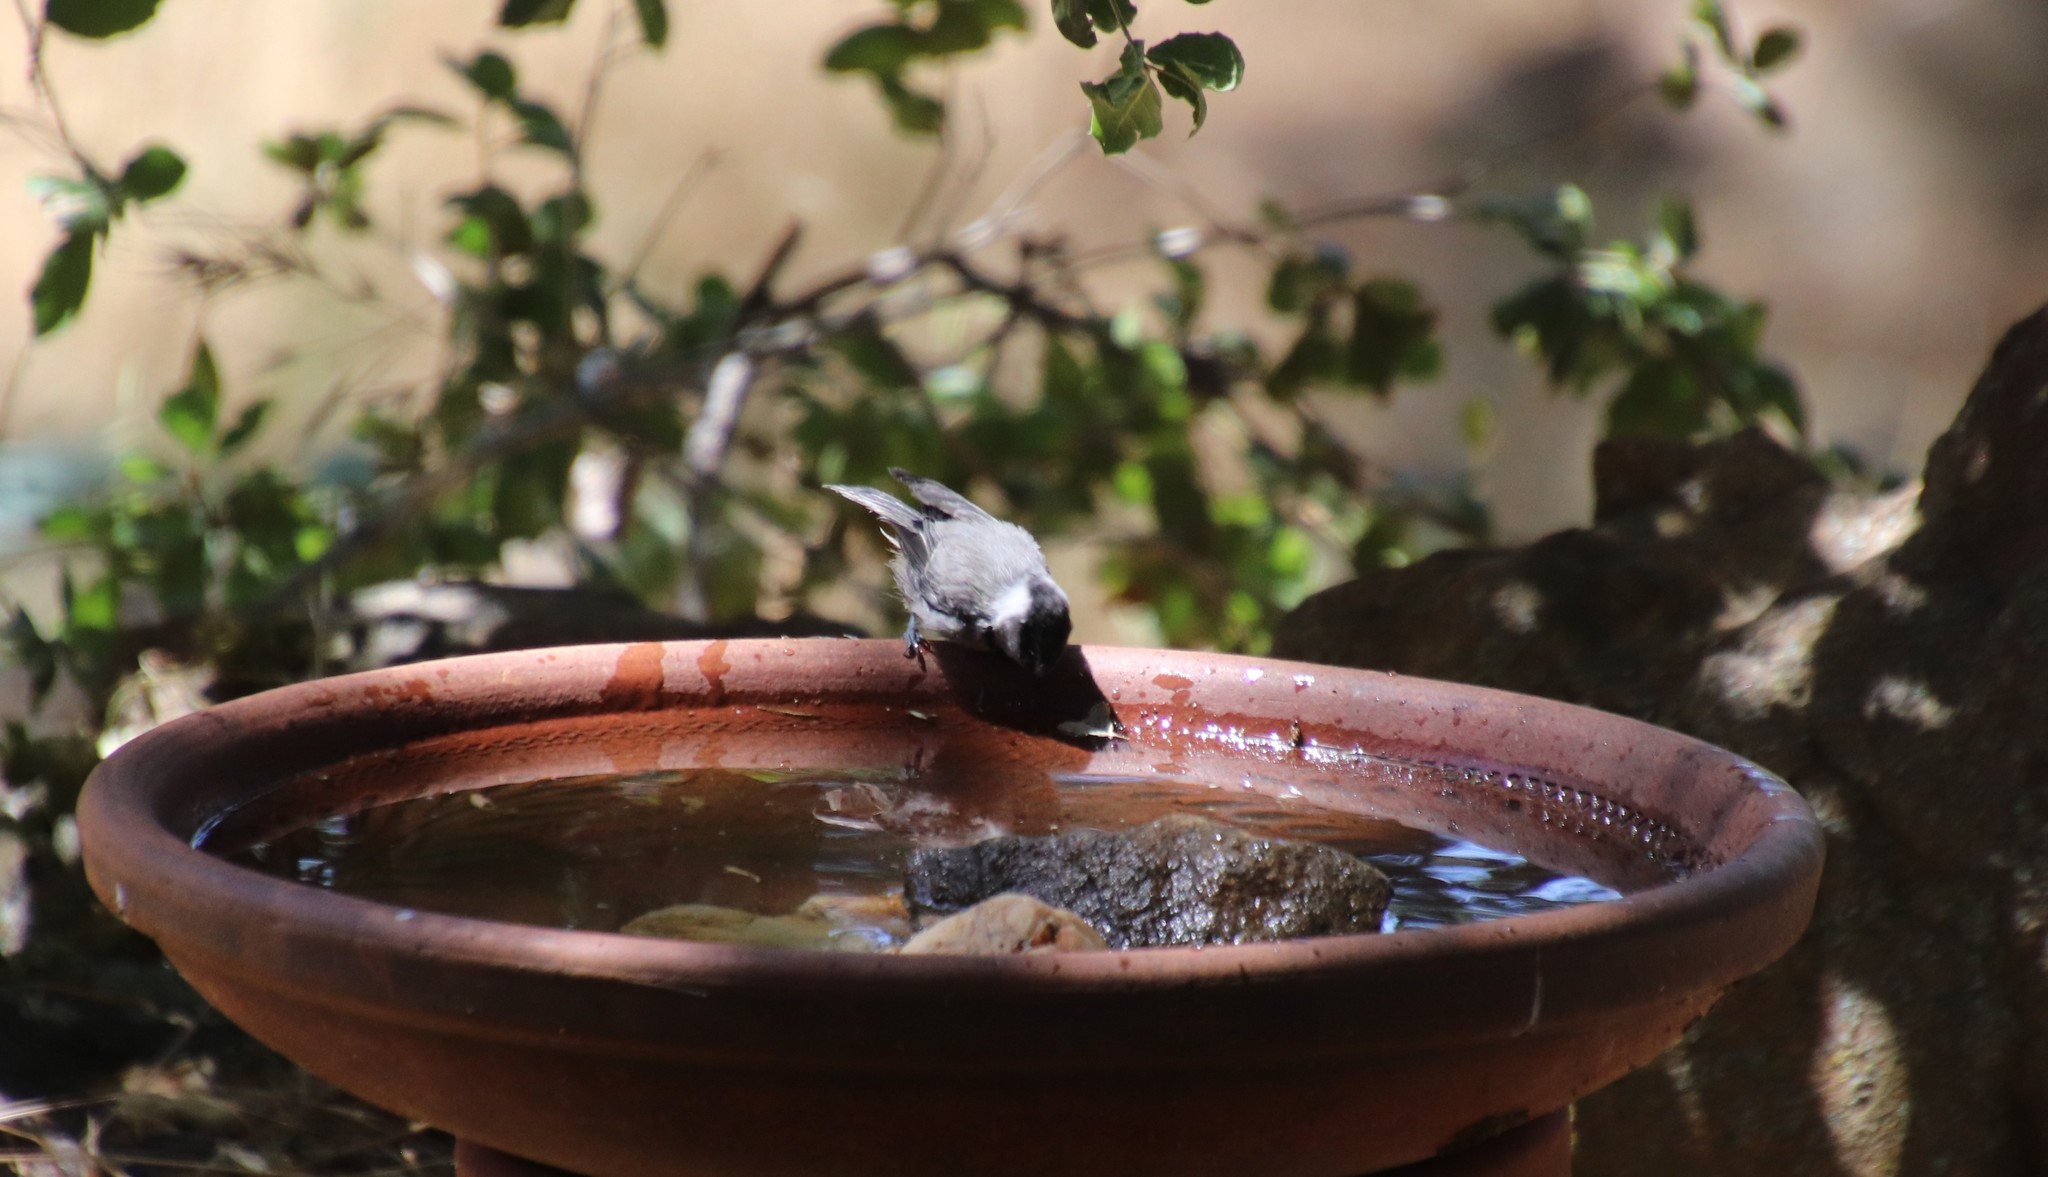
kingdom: Animalia
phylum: Chordata
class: Aves
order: Passeriformes
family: Paridae
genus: Poecile
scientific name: Poecile gambeli
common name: Mountain chickadee
